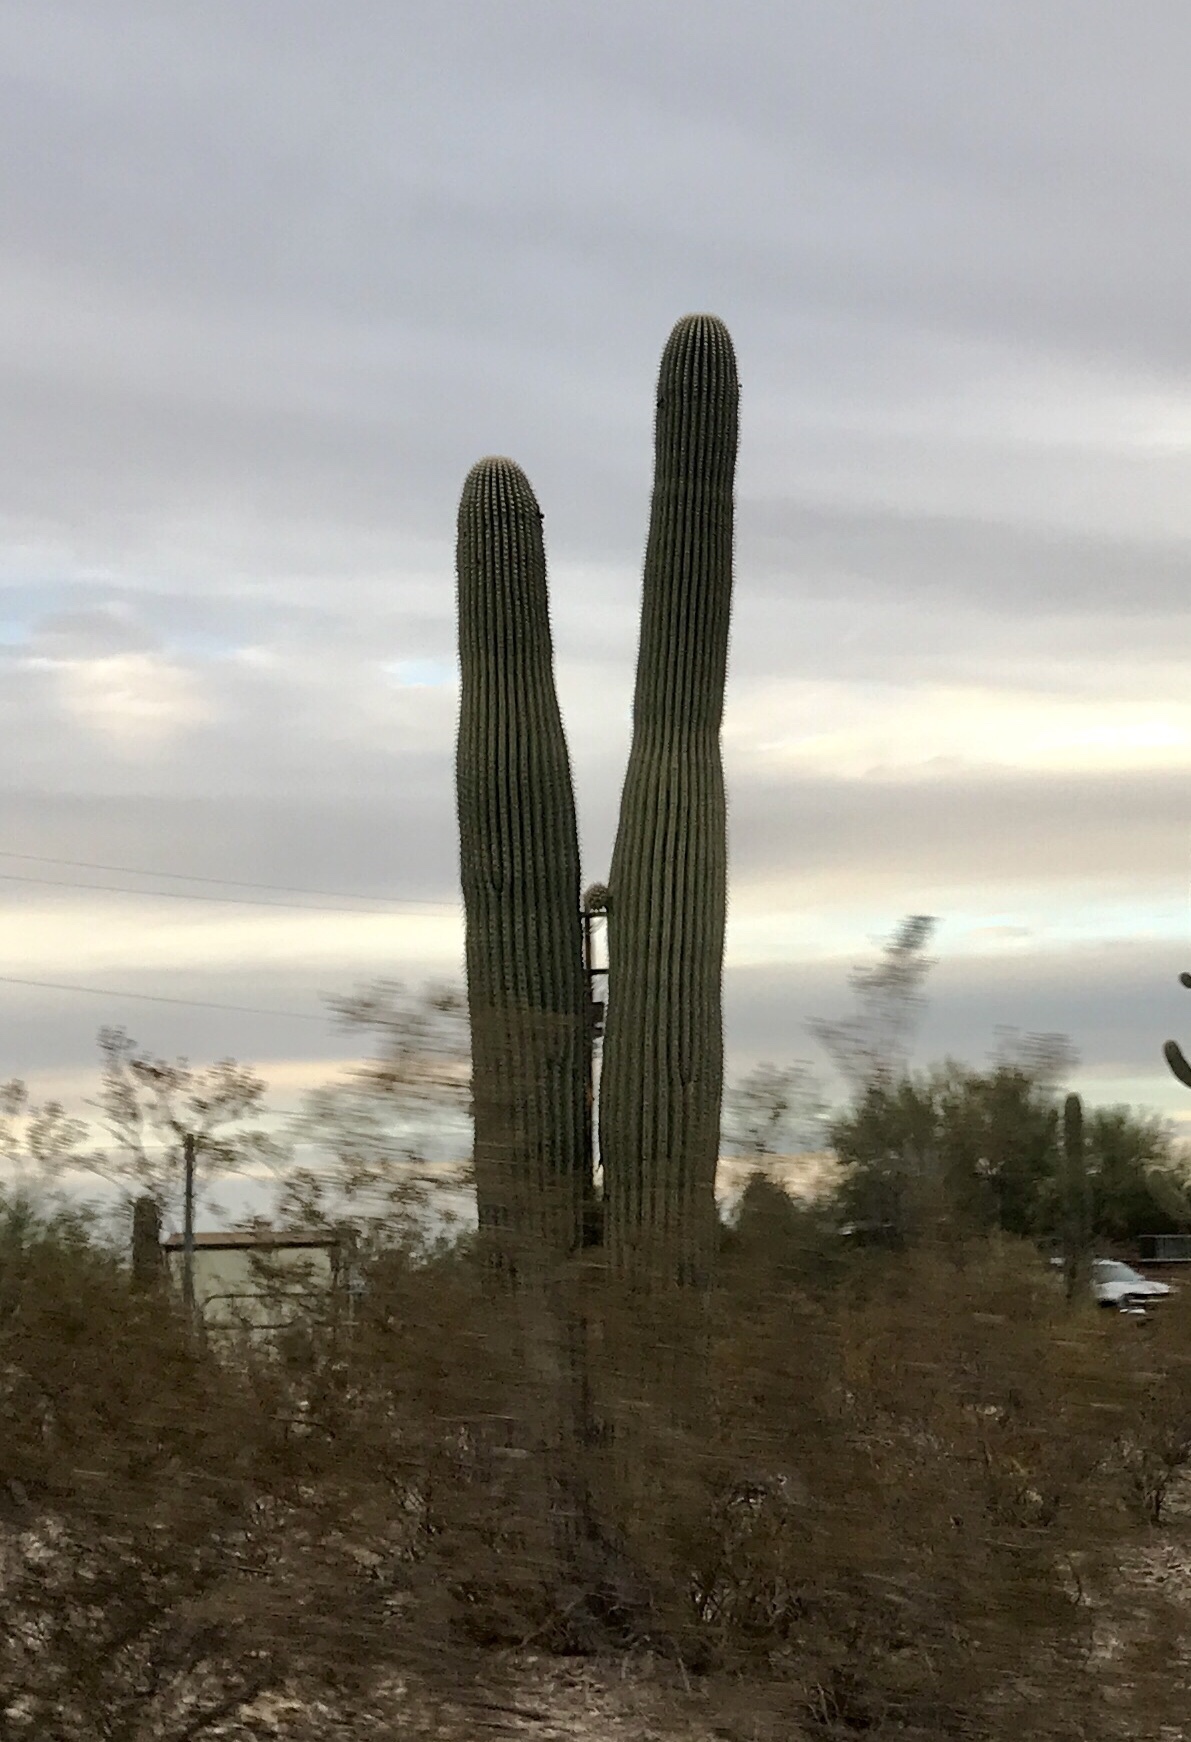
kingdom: Plantae
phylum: Tracheophyta
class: Magnoliopsida
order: Caryophyllales
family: Cactaceae
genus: Carnegiea
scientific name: Carnegiea gigantea
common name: Saguaro
